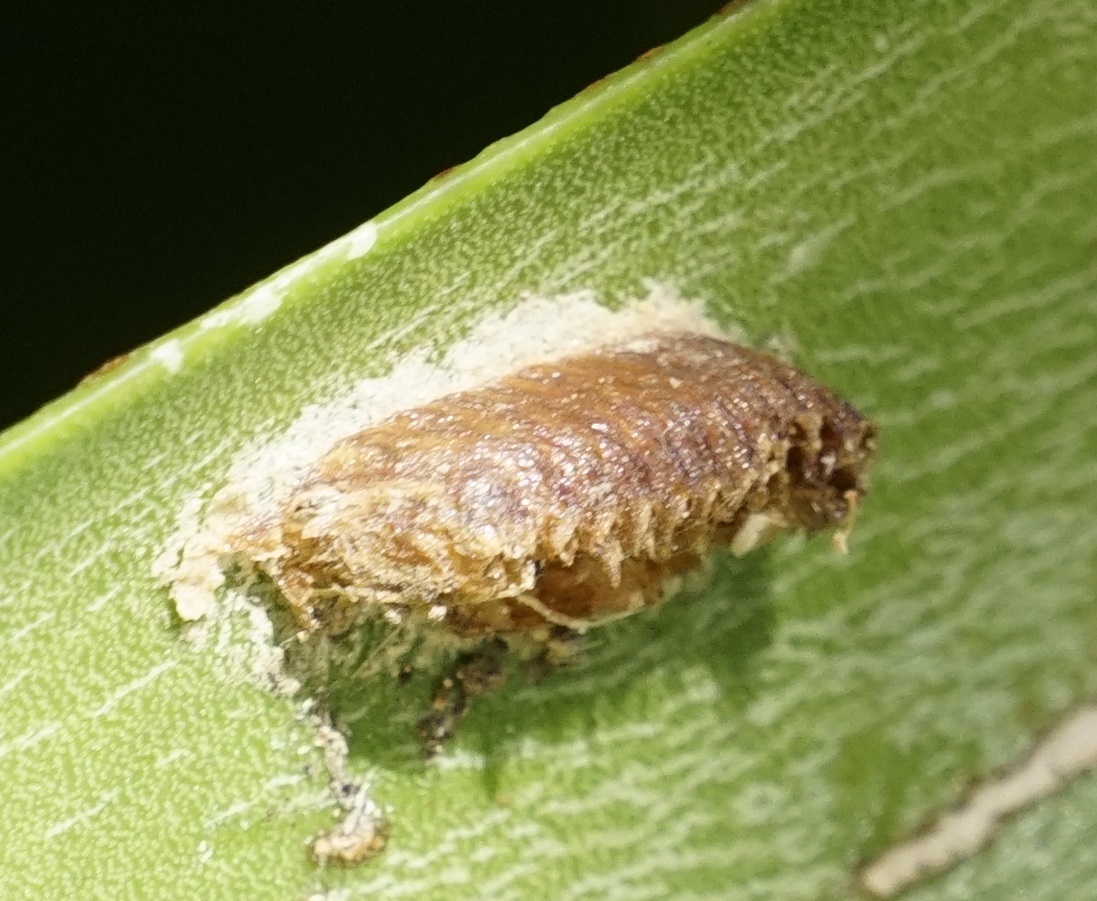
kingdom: Animalia
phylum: Arthropoda
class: Insecta
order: Mantodea
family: Mantidae
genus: Orthodera
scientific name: Orthodera ministralis
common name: Mantis
